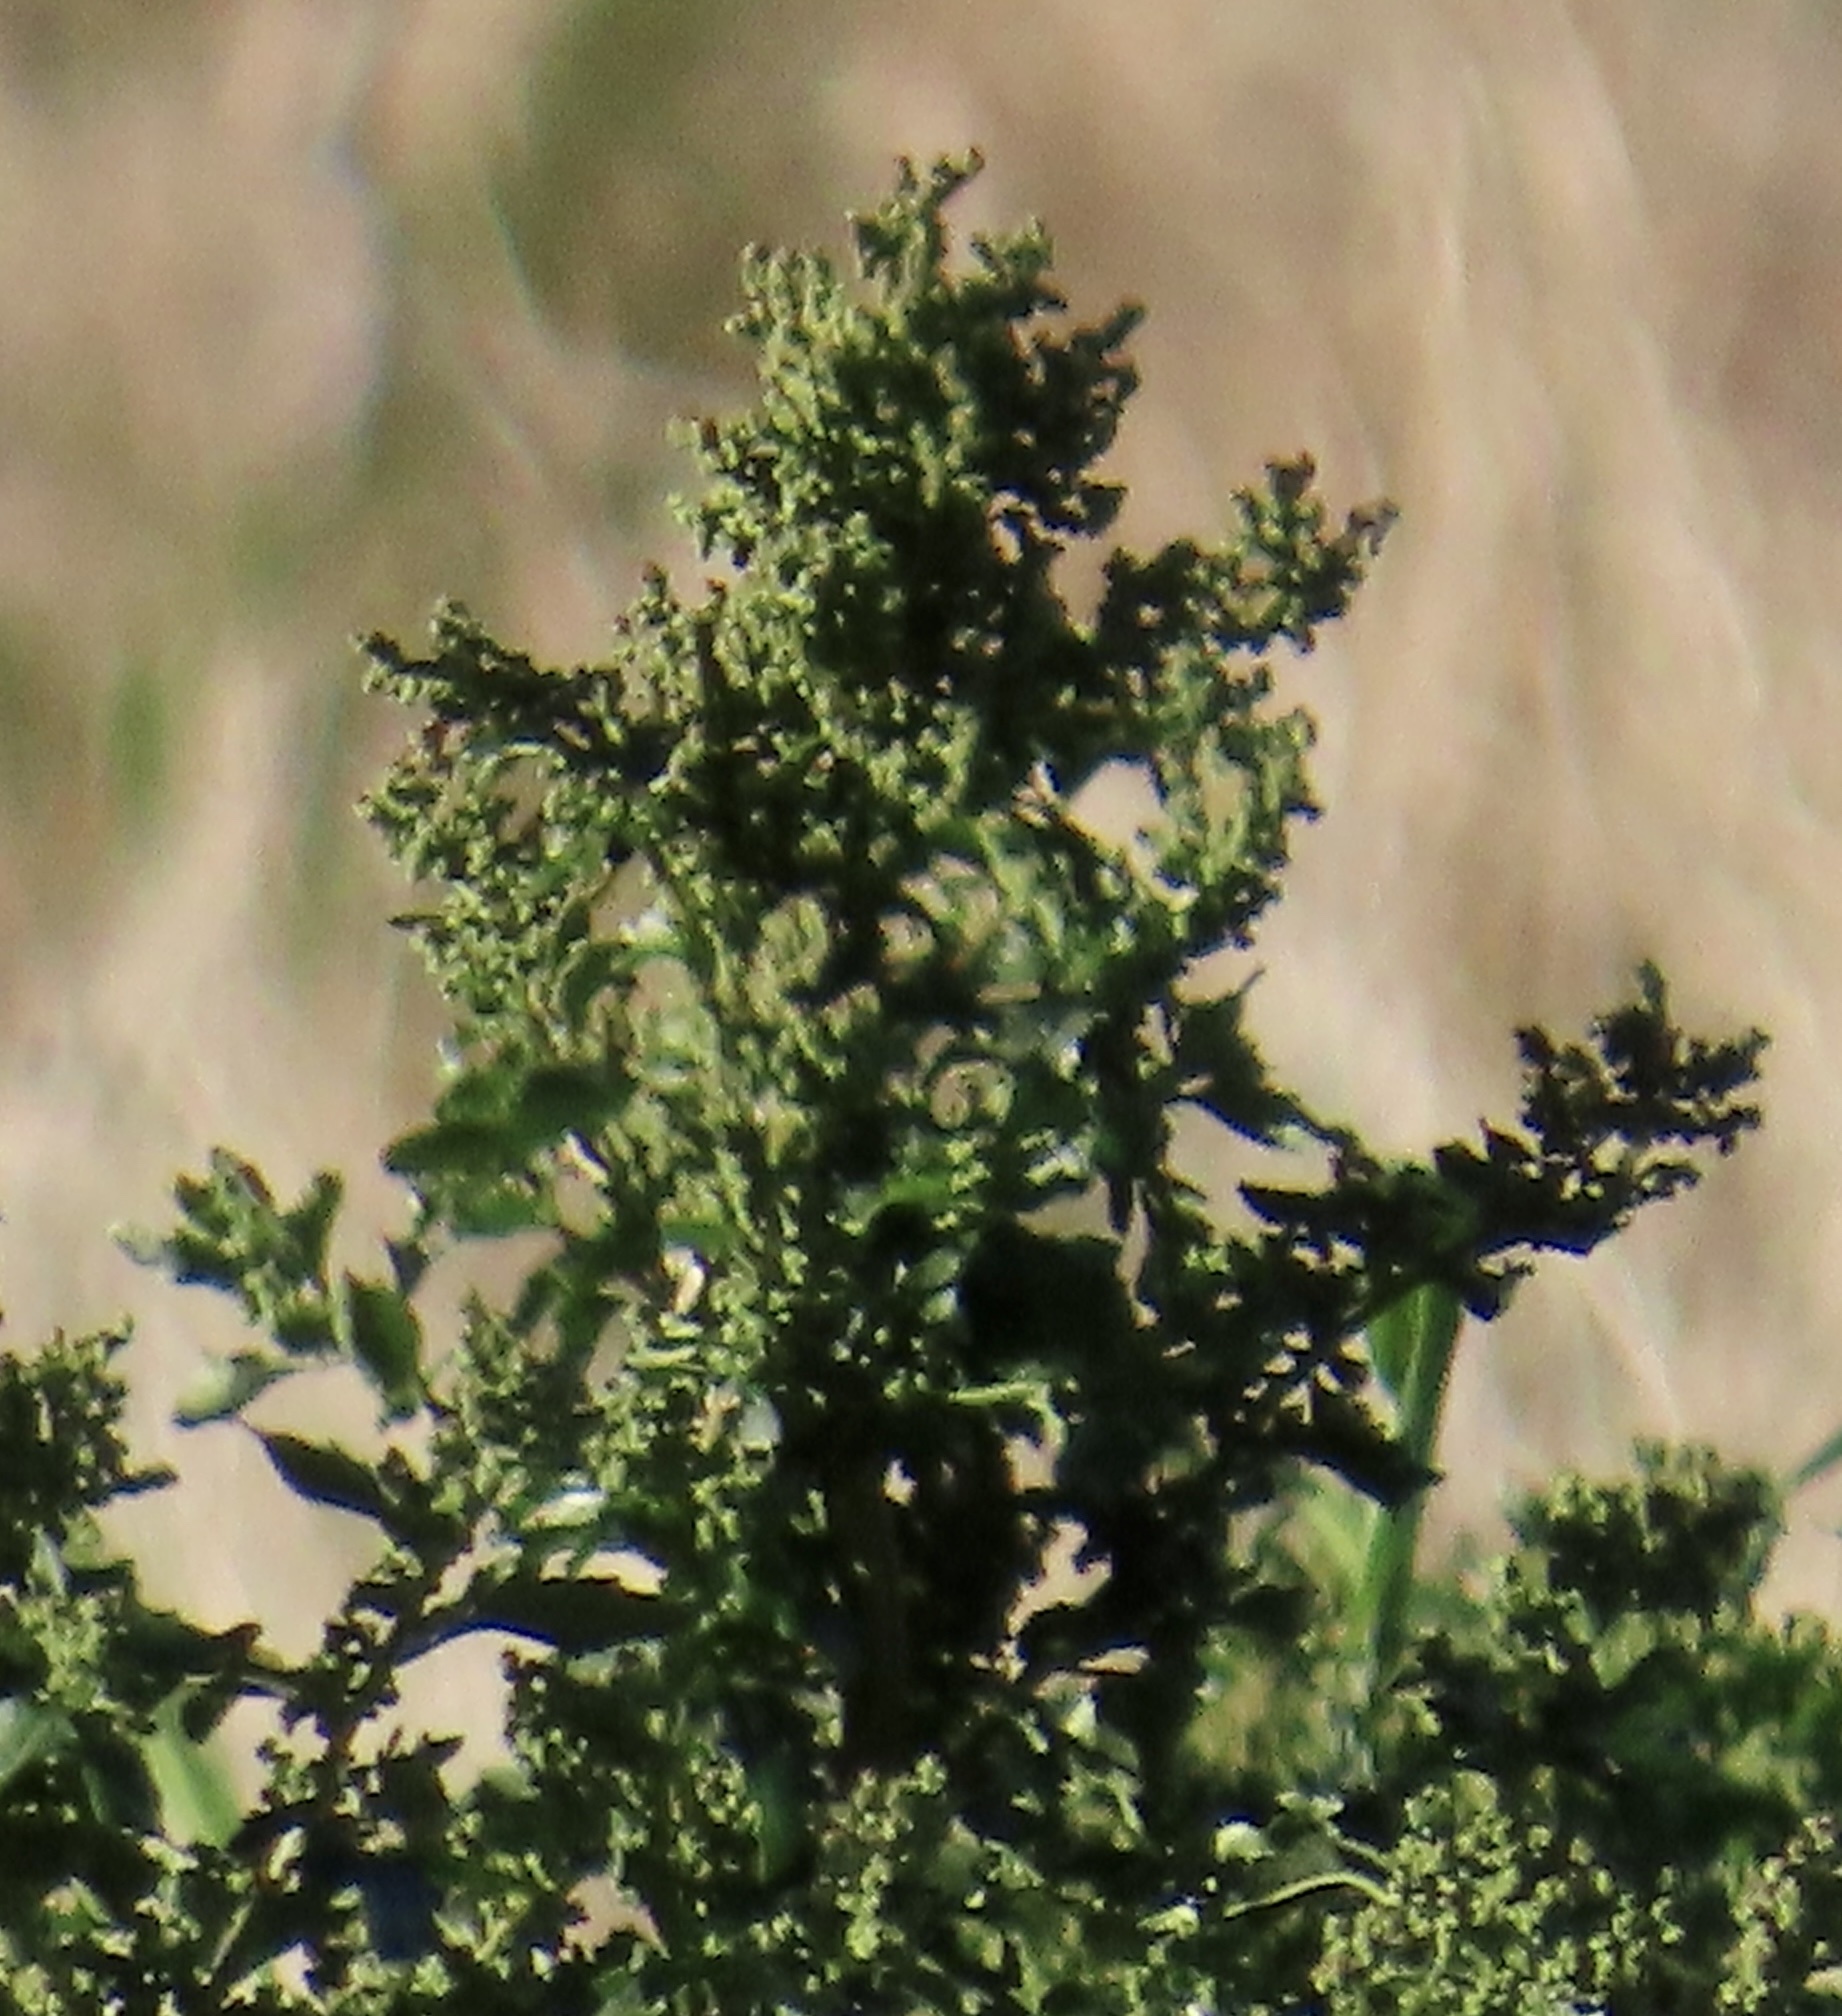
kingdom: Plantae
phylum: Tracheophyta
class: Magnoliopsida
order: Caryophyllales
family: Amaranthaceae
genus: Chenopodiastrum
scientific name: Chenopodiastrum murale
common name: Sowbane
